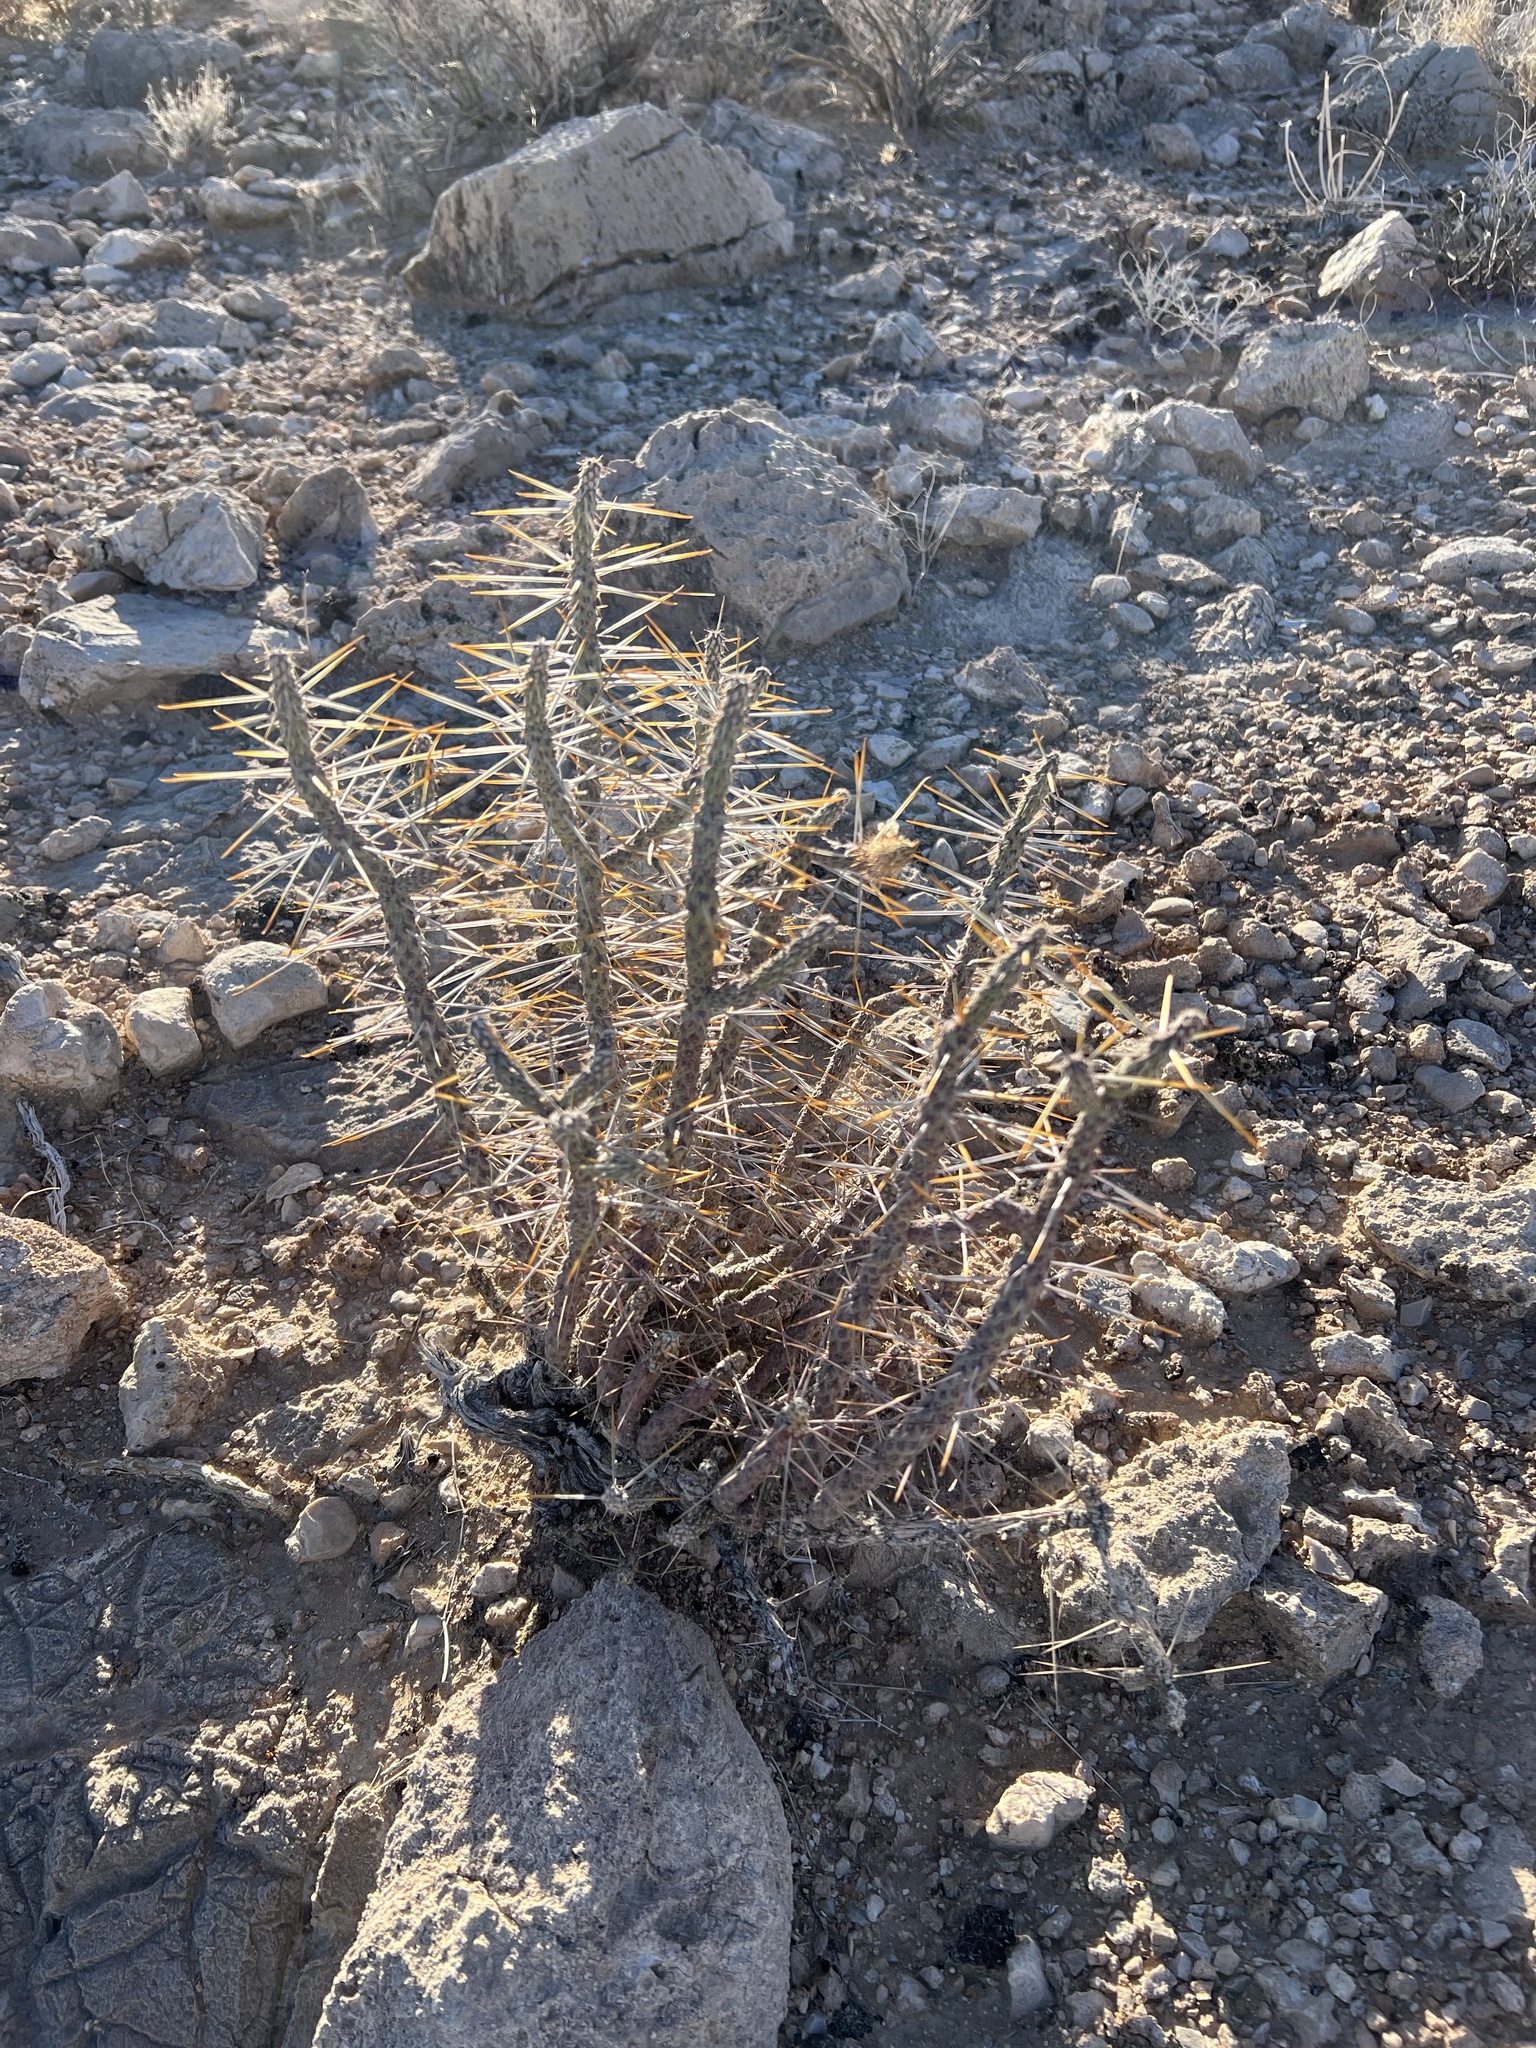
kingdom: Plantae
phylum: Tracheophyta
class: Magnoliopsida
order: Caryophyllales
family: Cactaceae
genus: Cylindropuntia
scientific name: Cylindropuntia ramosissima
